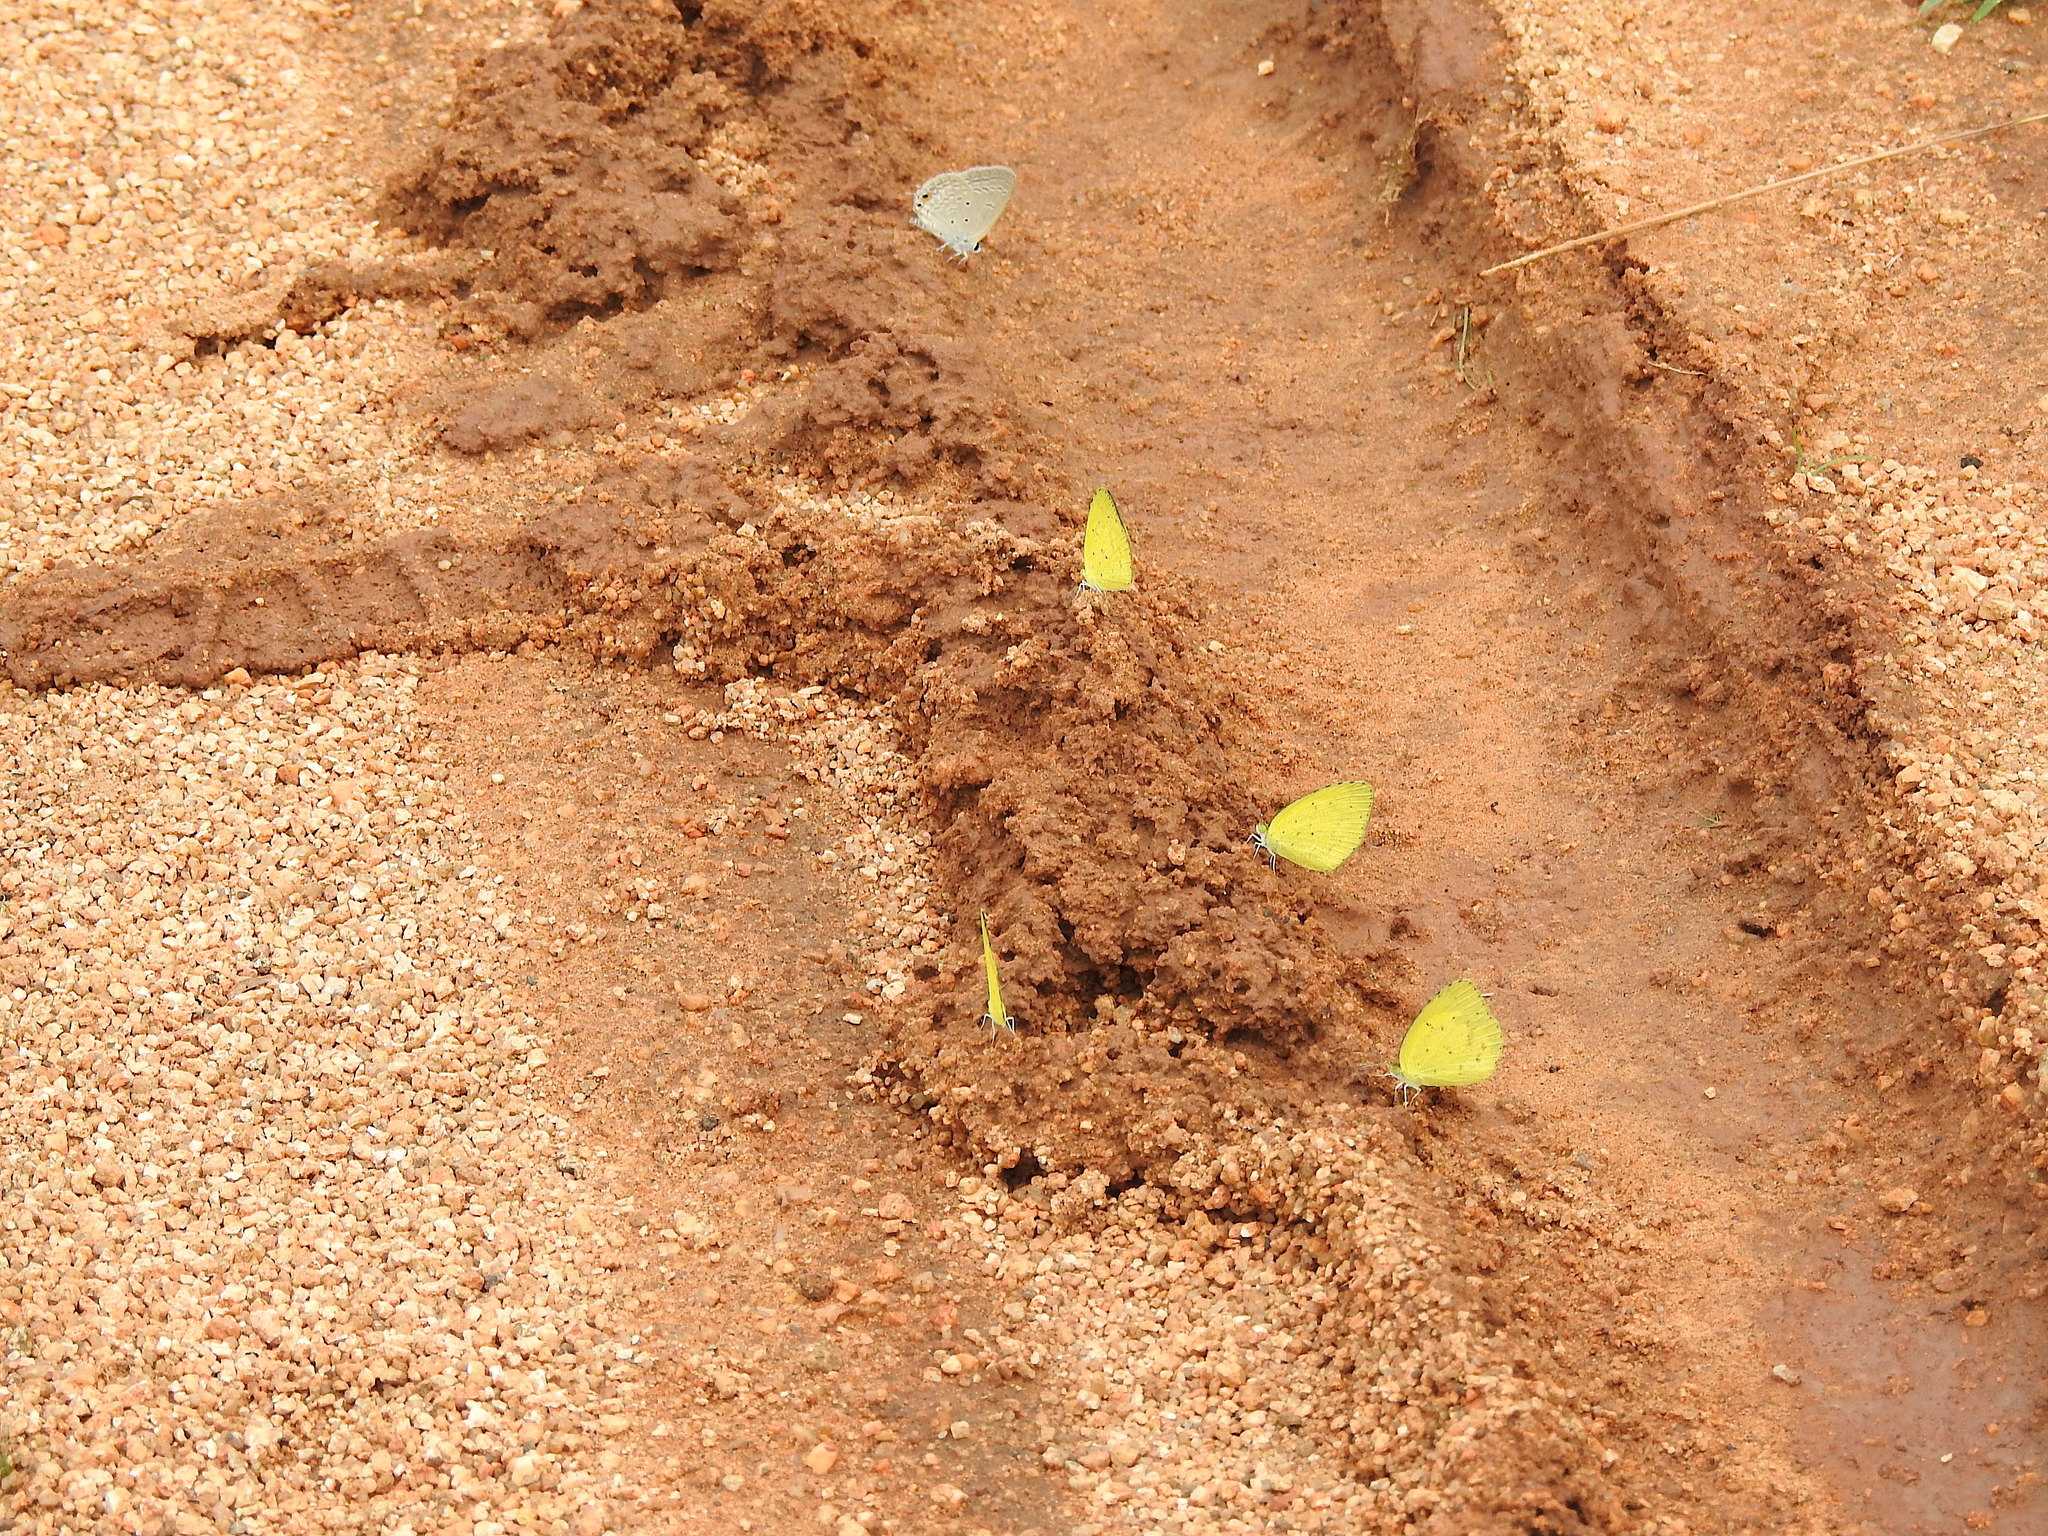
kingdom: Animalia
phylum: Arthropoda
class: Insecta
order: Lepidoptera
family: Pieridae
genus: Eurema
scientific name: Eurema brigitta
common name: Small grass yellow
